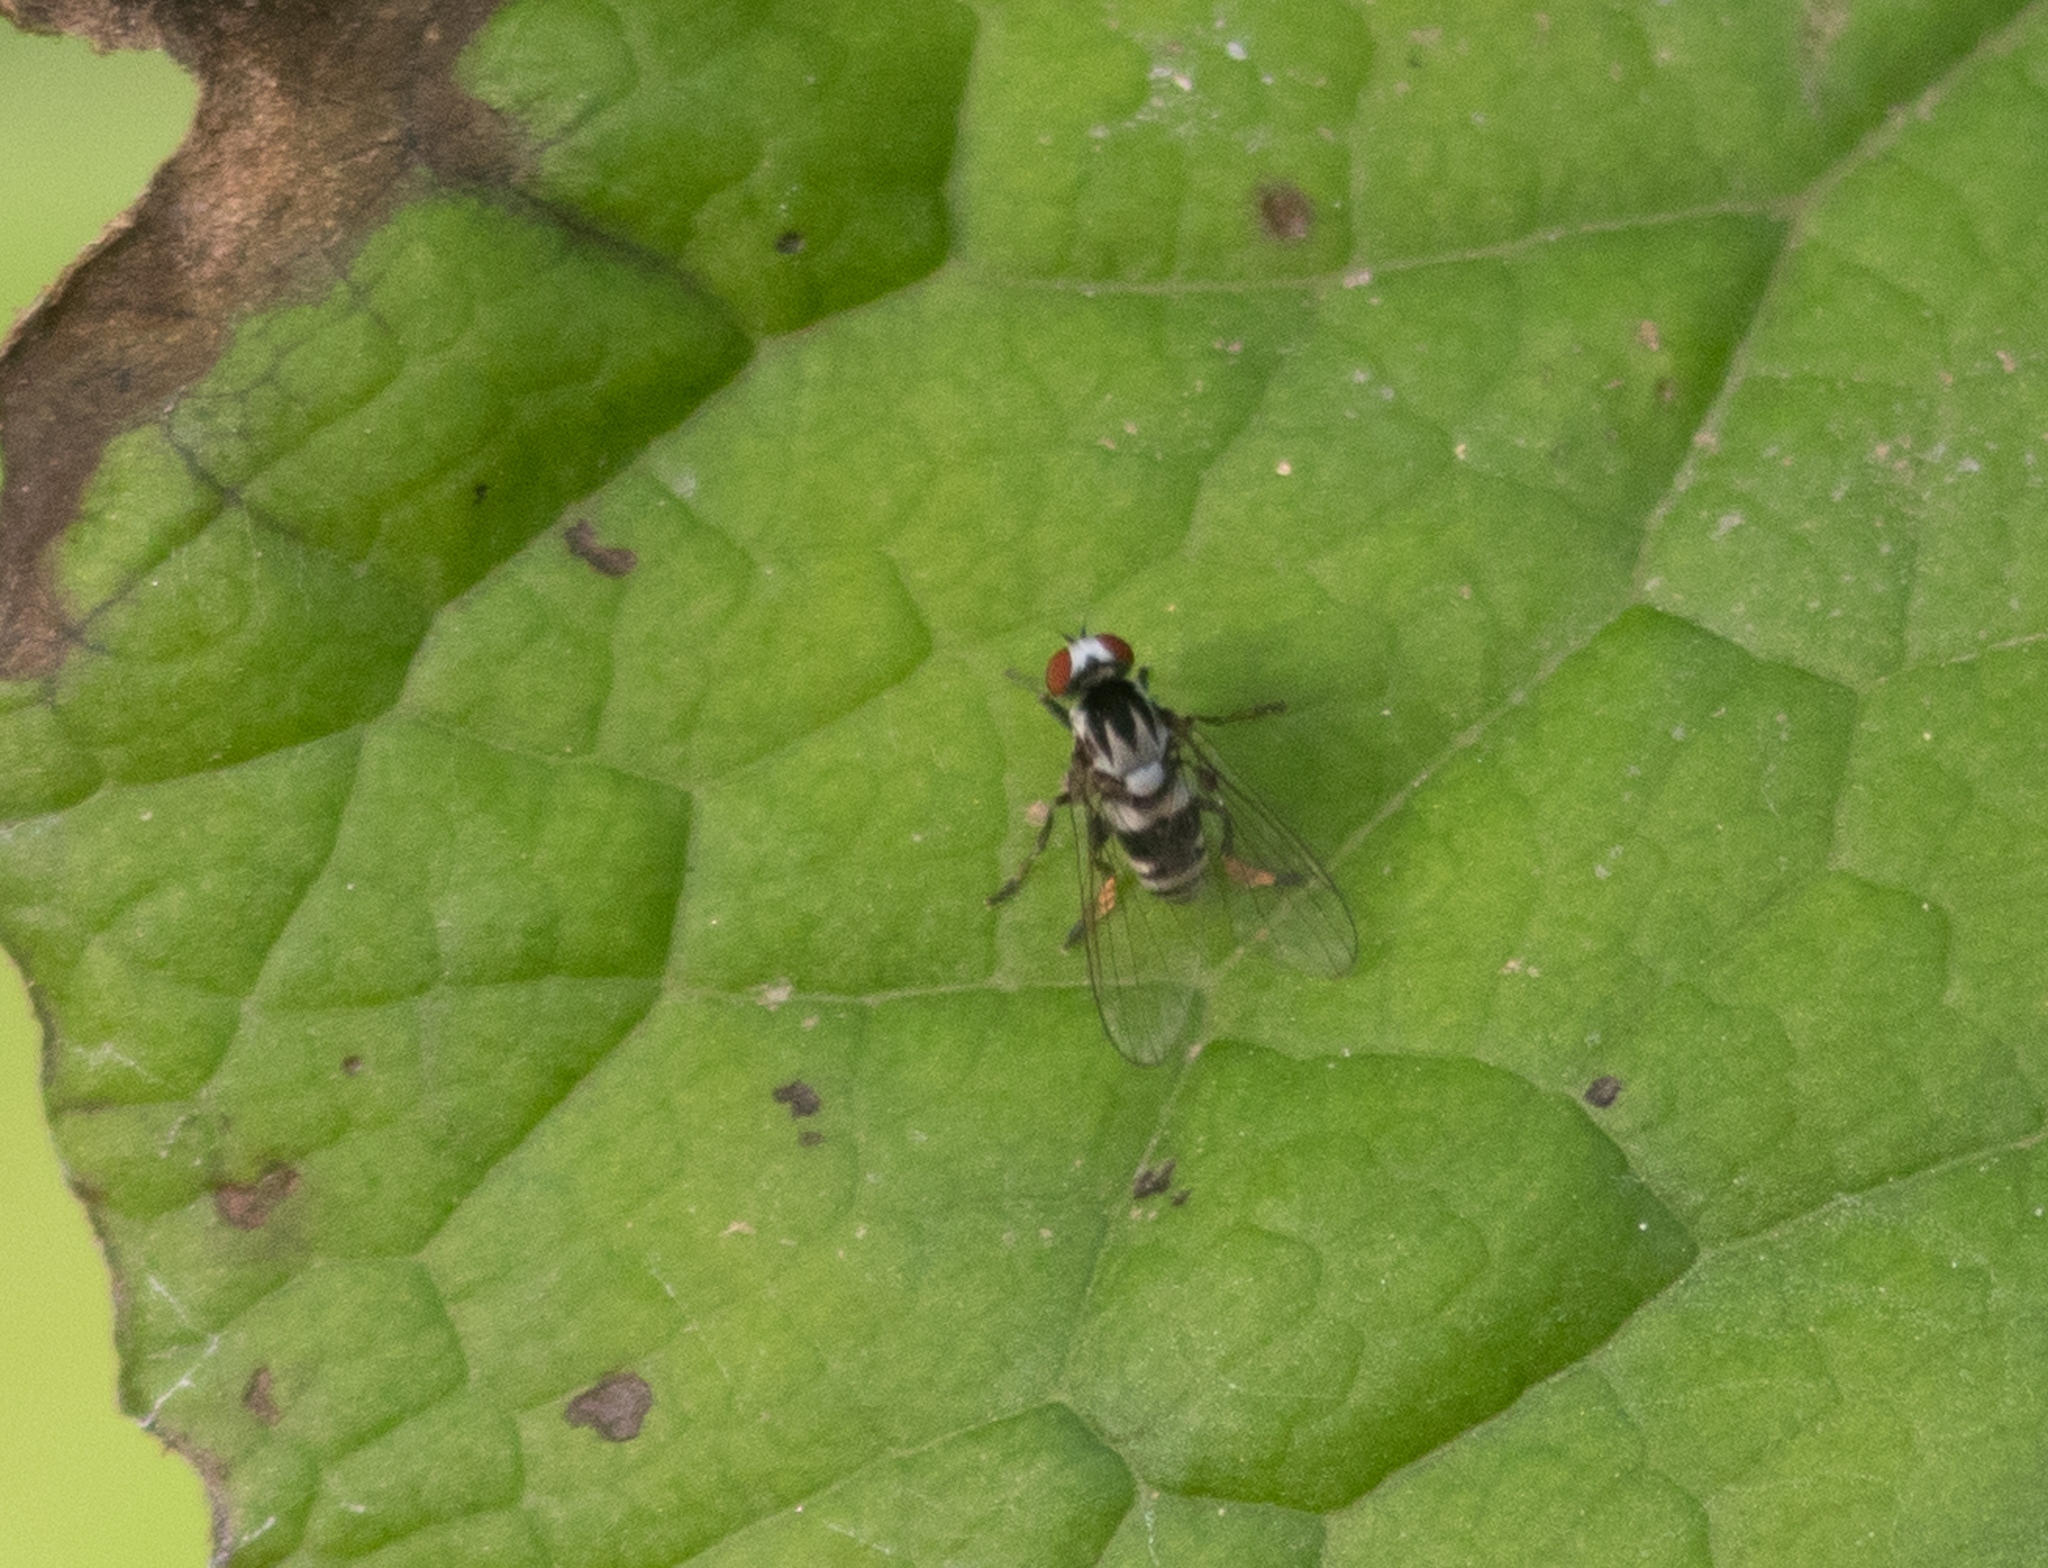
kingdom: Animalia
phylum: Arthropoda
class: Insecta
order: Diptera
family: Platypezidae
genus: Polyporivora
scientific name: Polyporivora ornata
